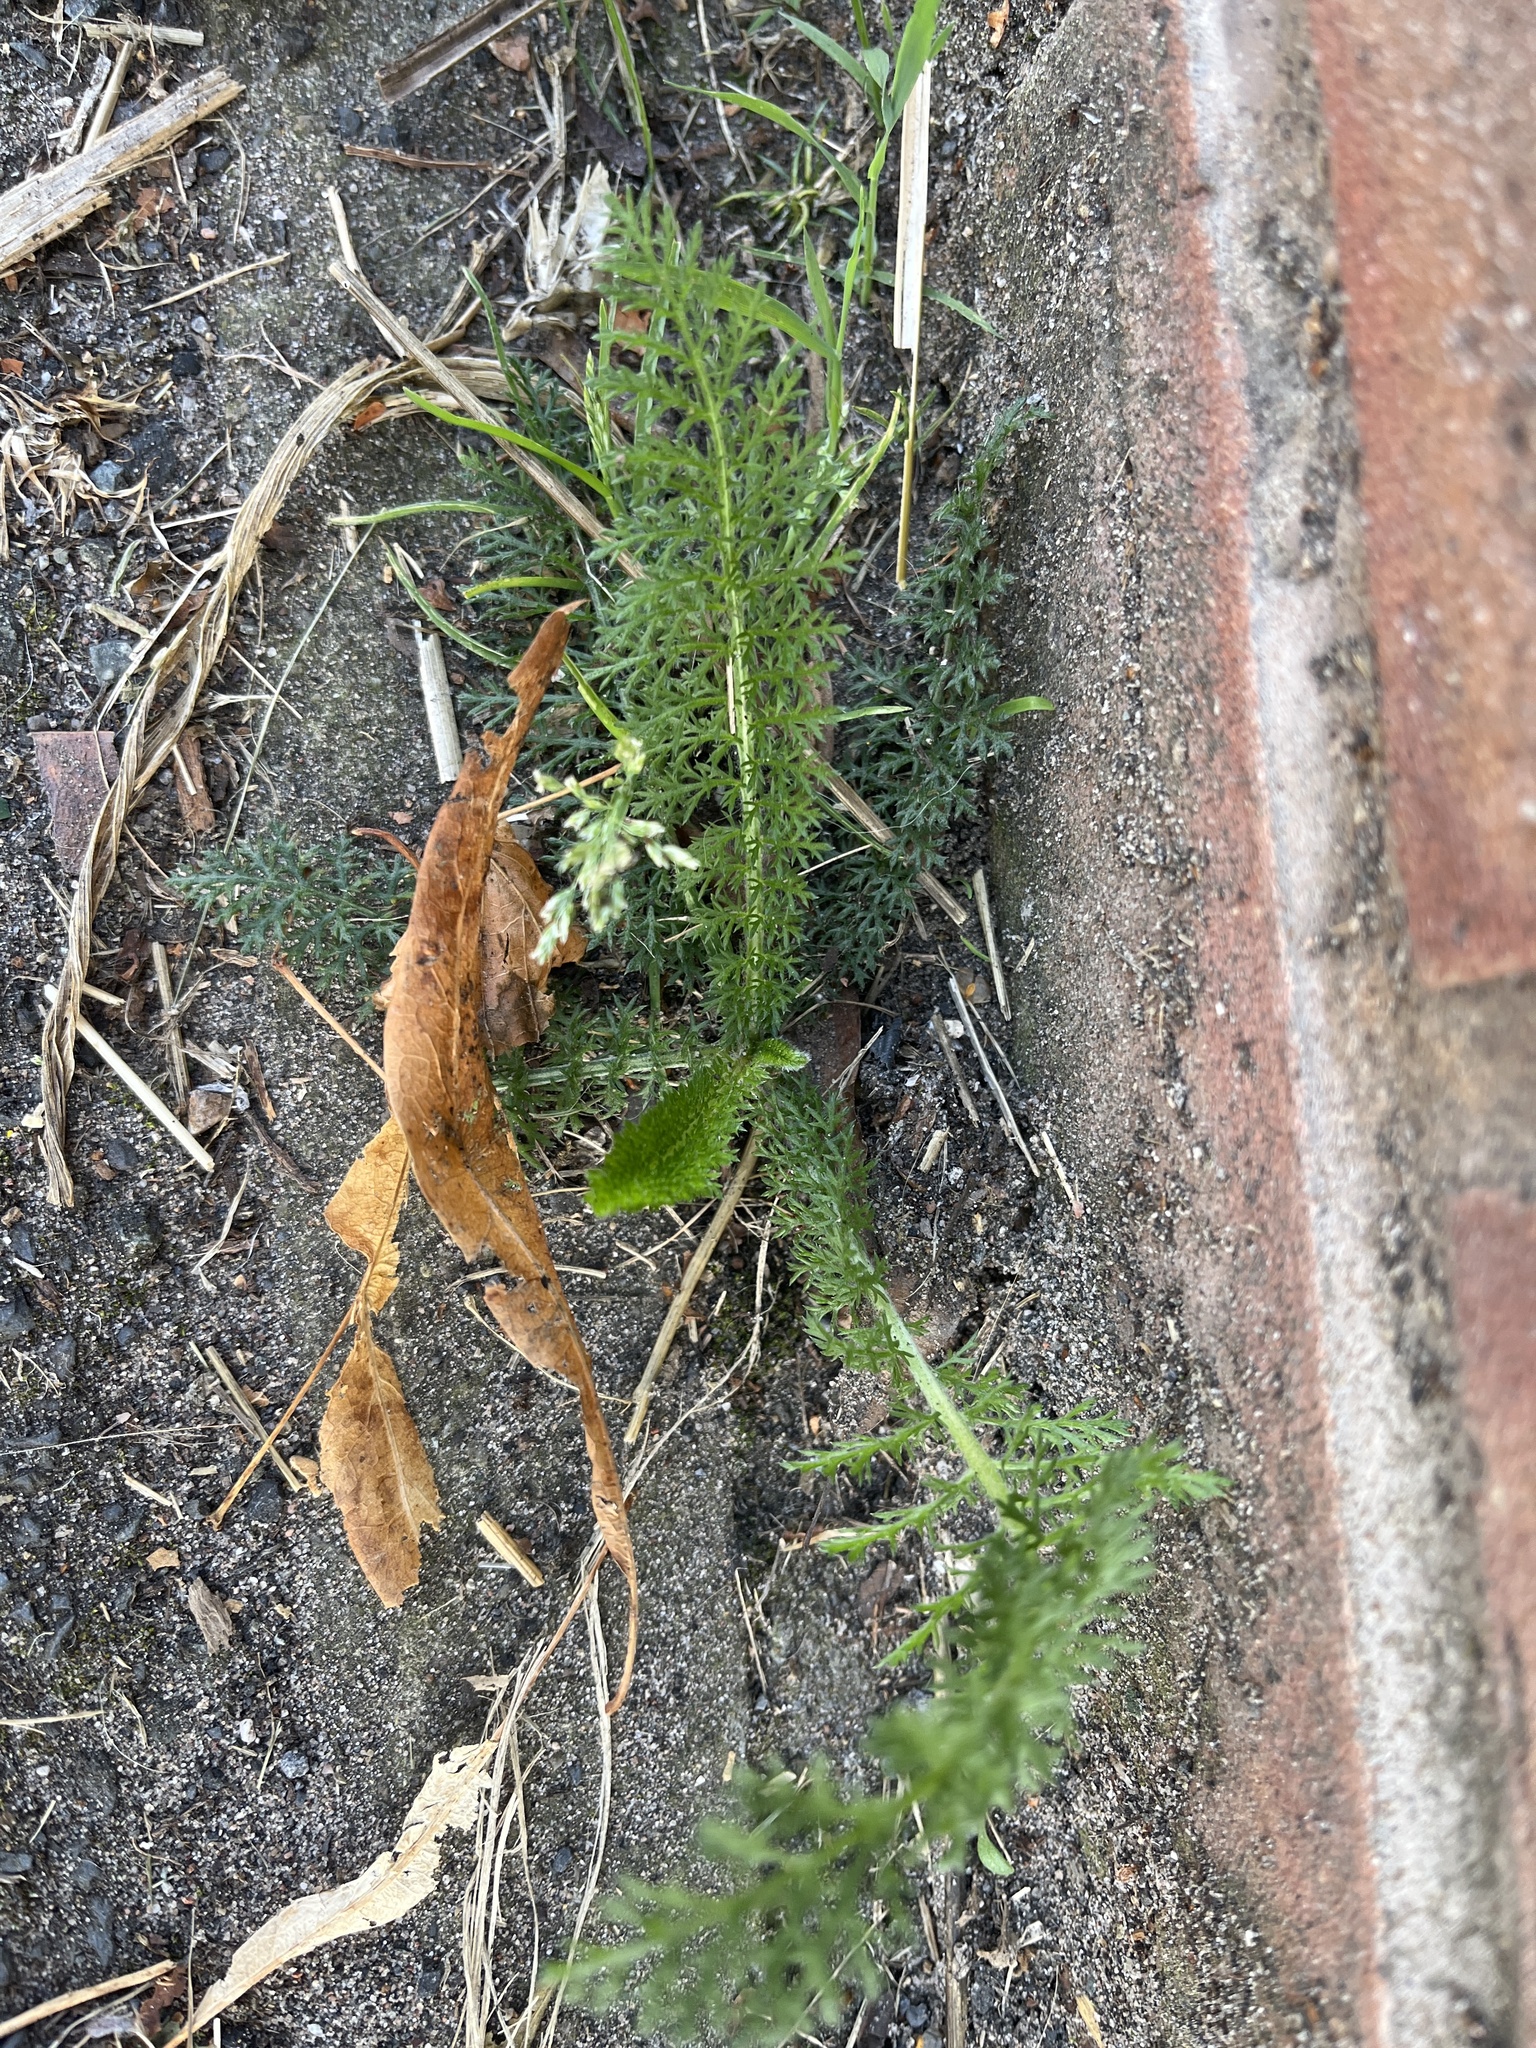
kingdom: Plantae
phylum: Tracheophyta
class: Magnoliopsida
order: Asterales
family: Asteraceae
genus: Achillea
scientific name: Achillea millefolium
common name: Yarrow
